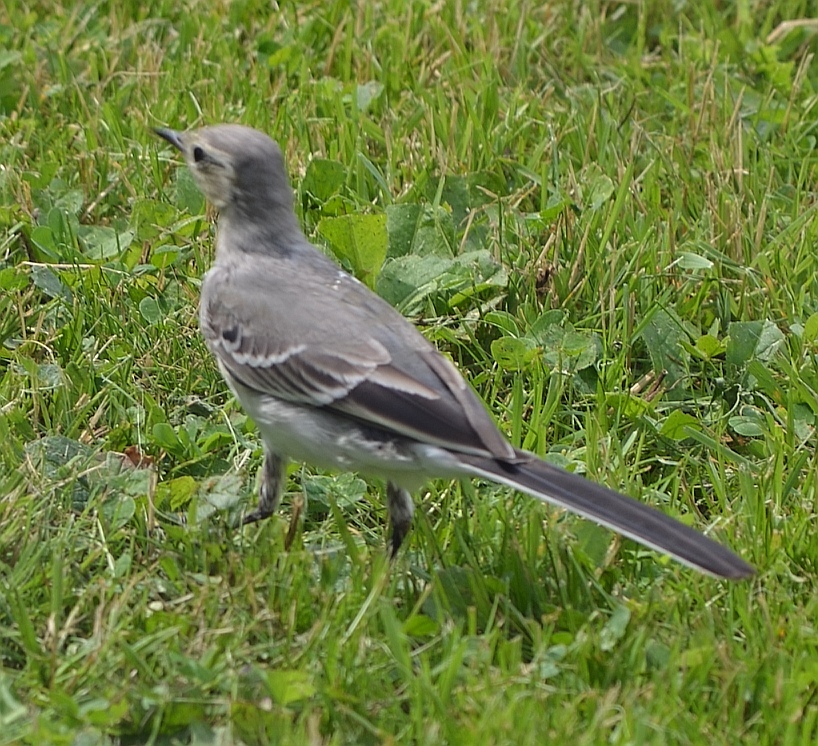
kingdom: Animalia
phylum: Chordata
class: Aves
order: Passeriformes
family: Motacillidae
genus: Motacilla
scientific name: Motacilla alba
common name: White wagtail
